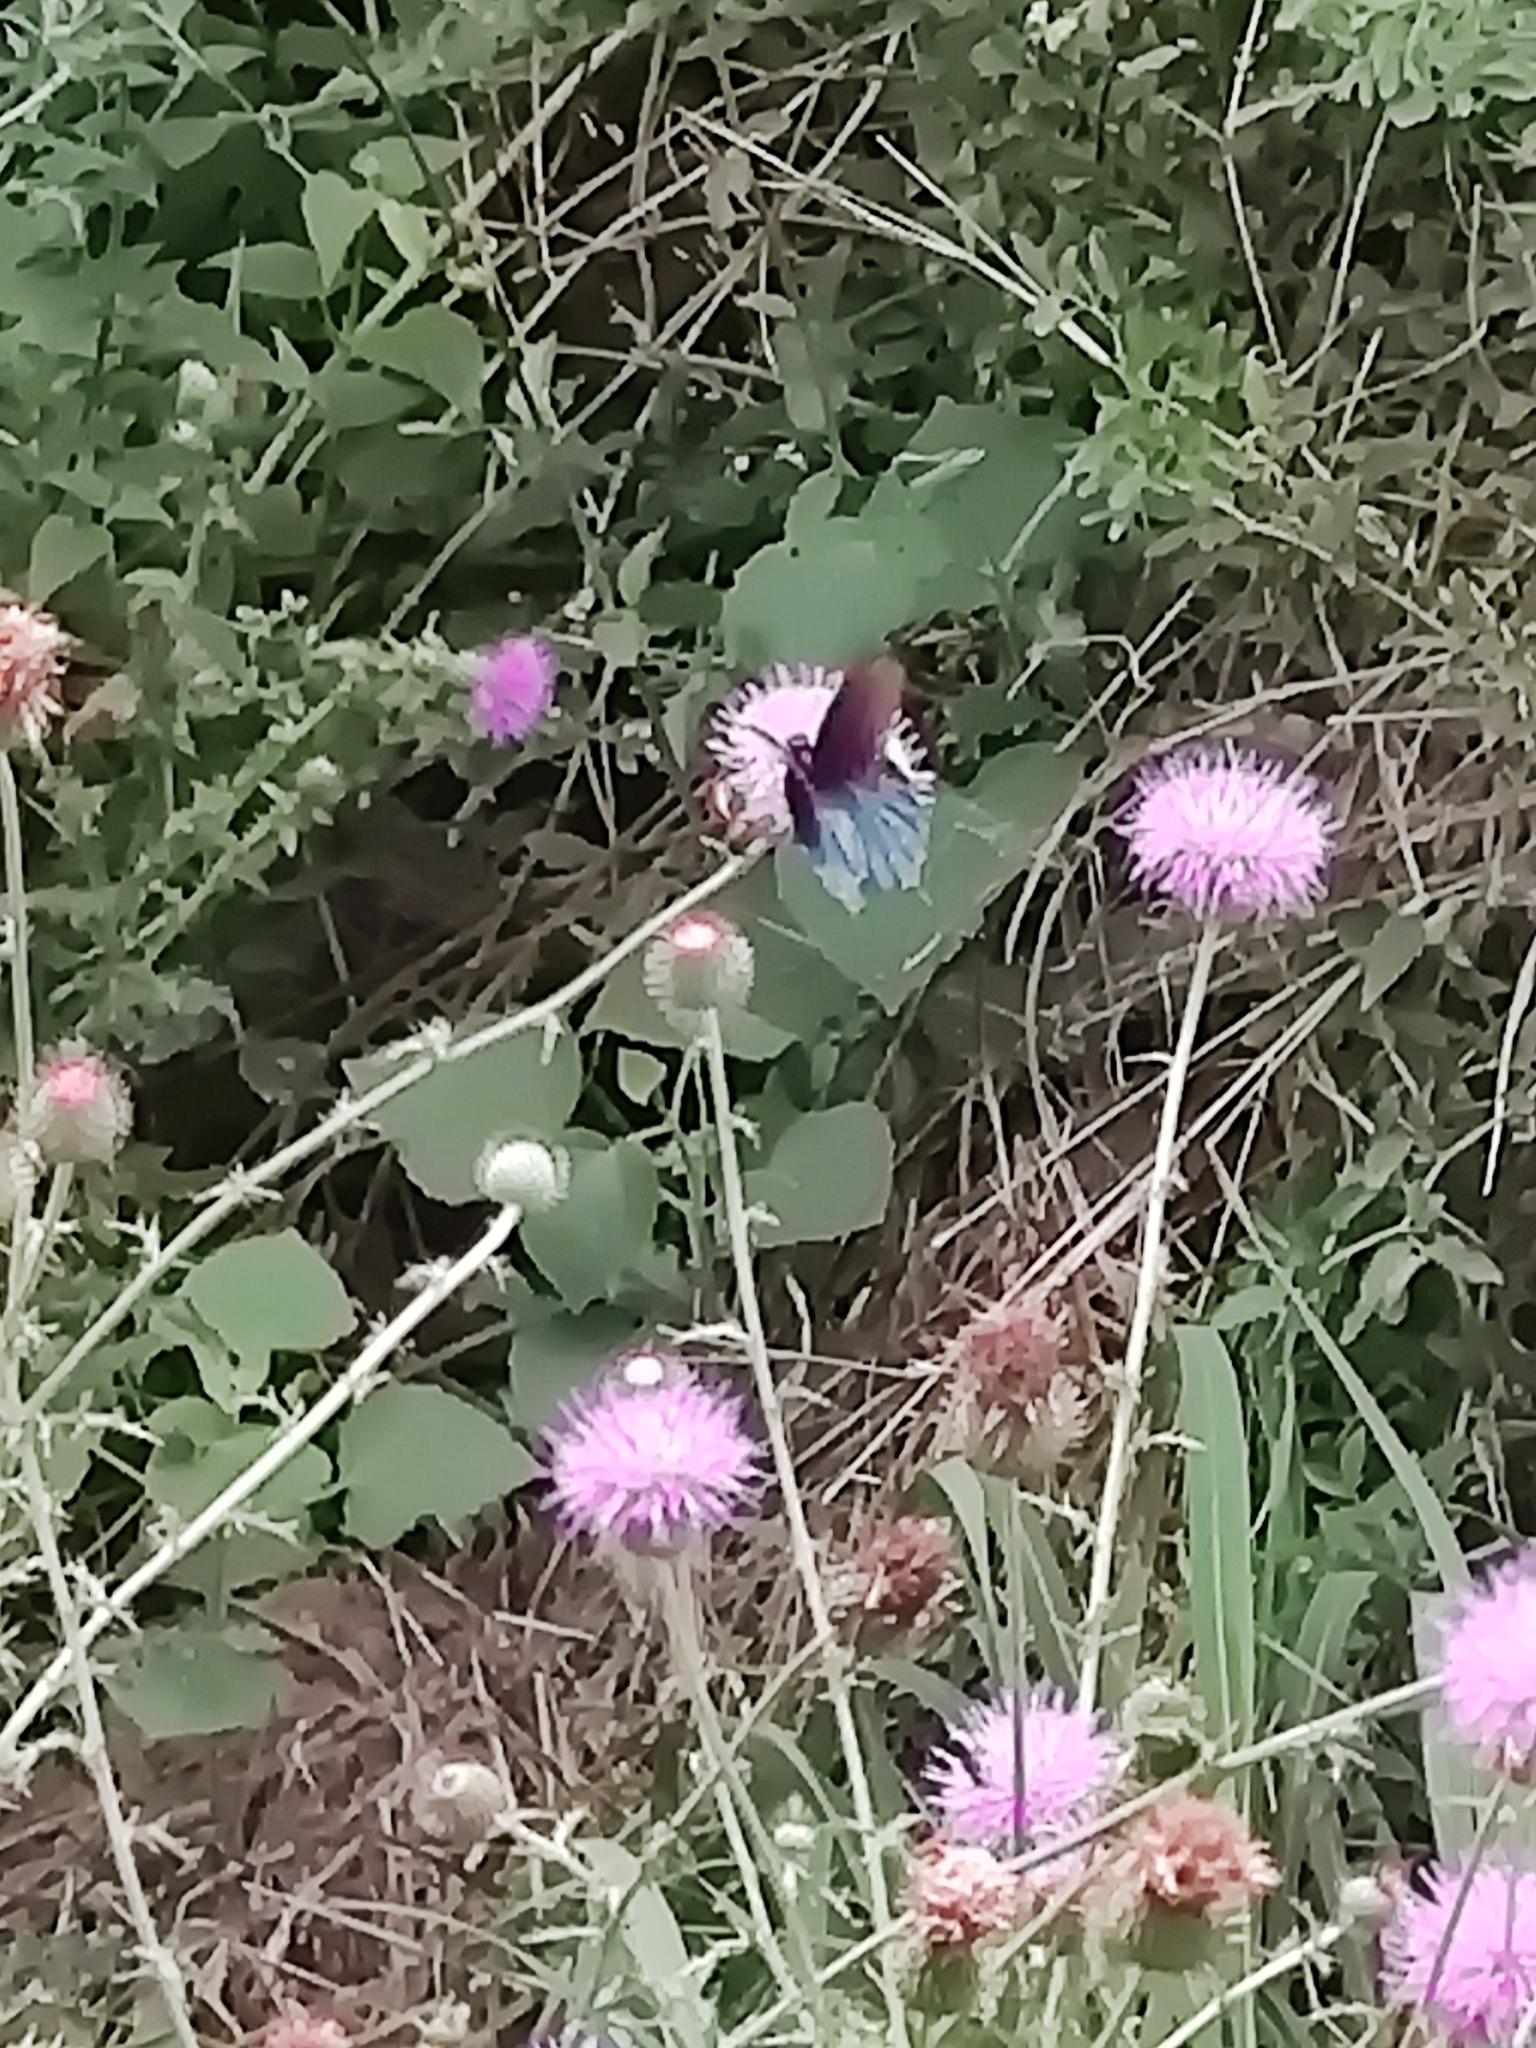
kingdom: Animalia
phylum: Arthropoda
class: Insecta
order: Lepidoptera
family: Papilionidae
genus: Battus
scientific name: Battus philenor
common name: Pipevine swallowtail
